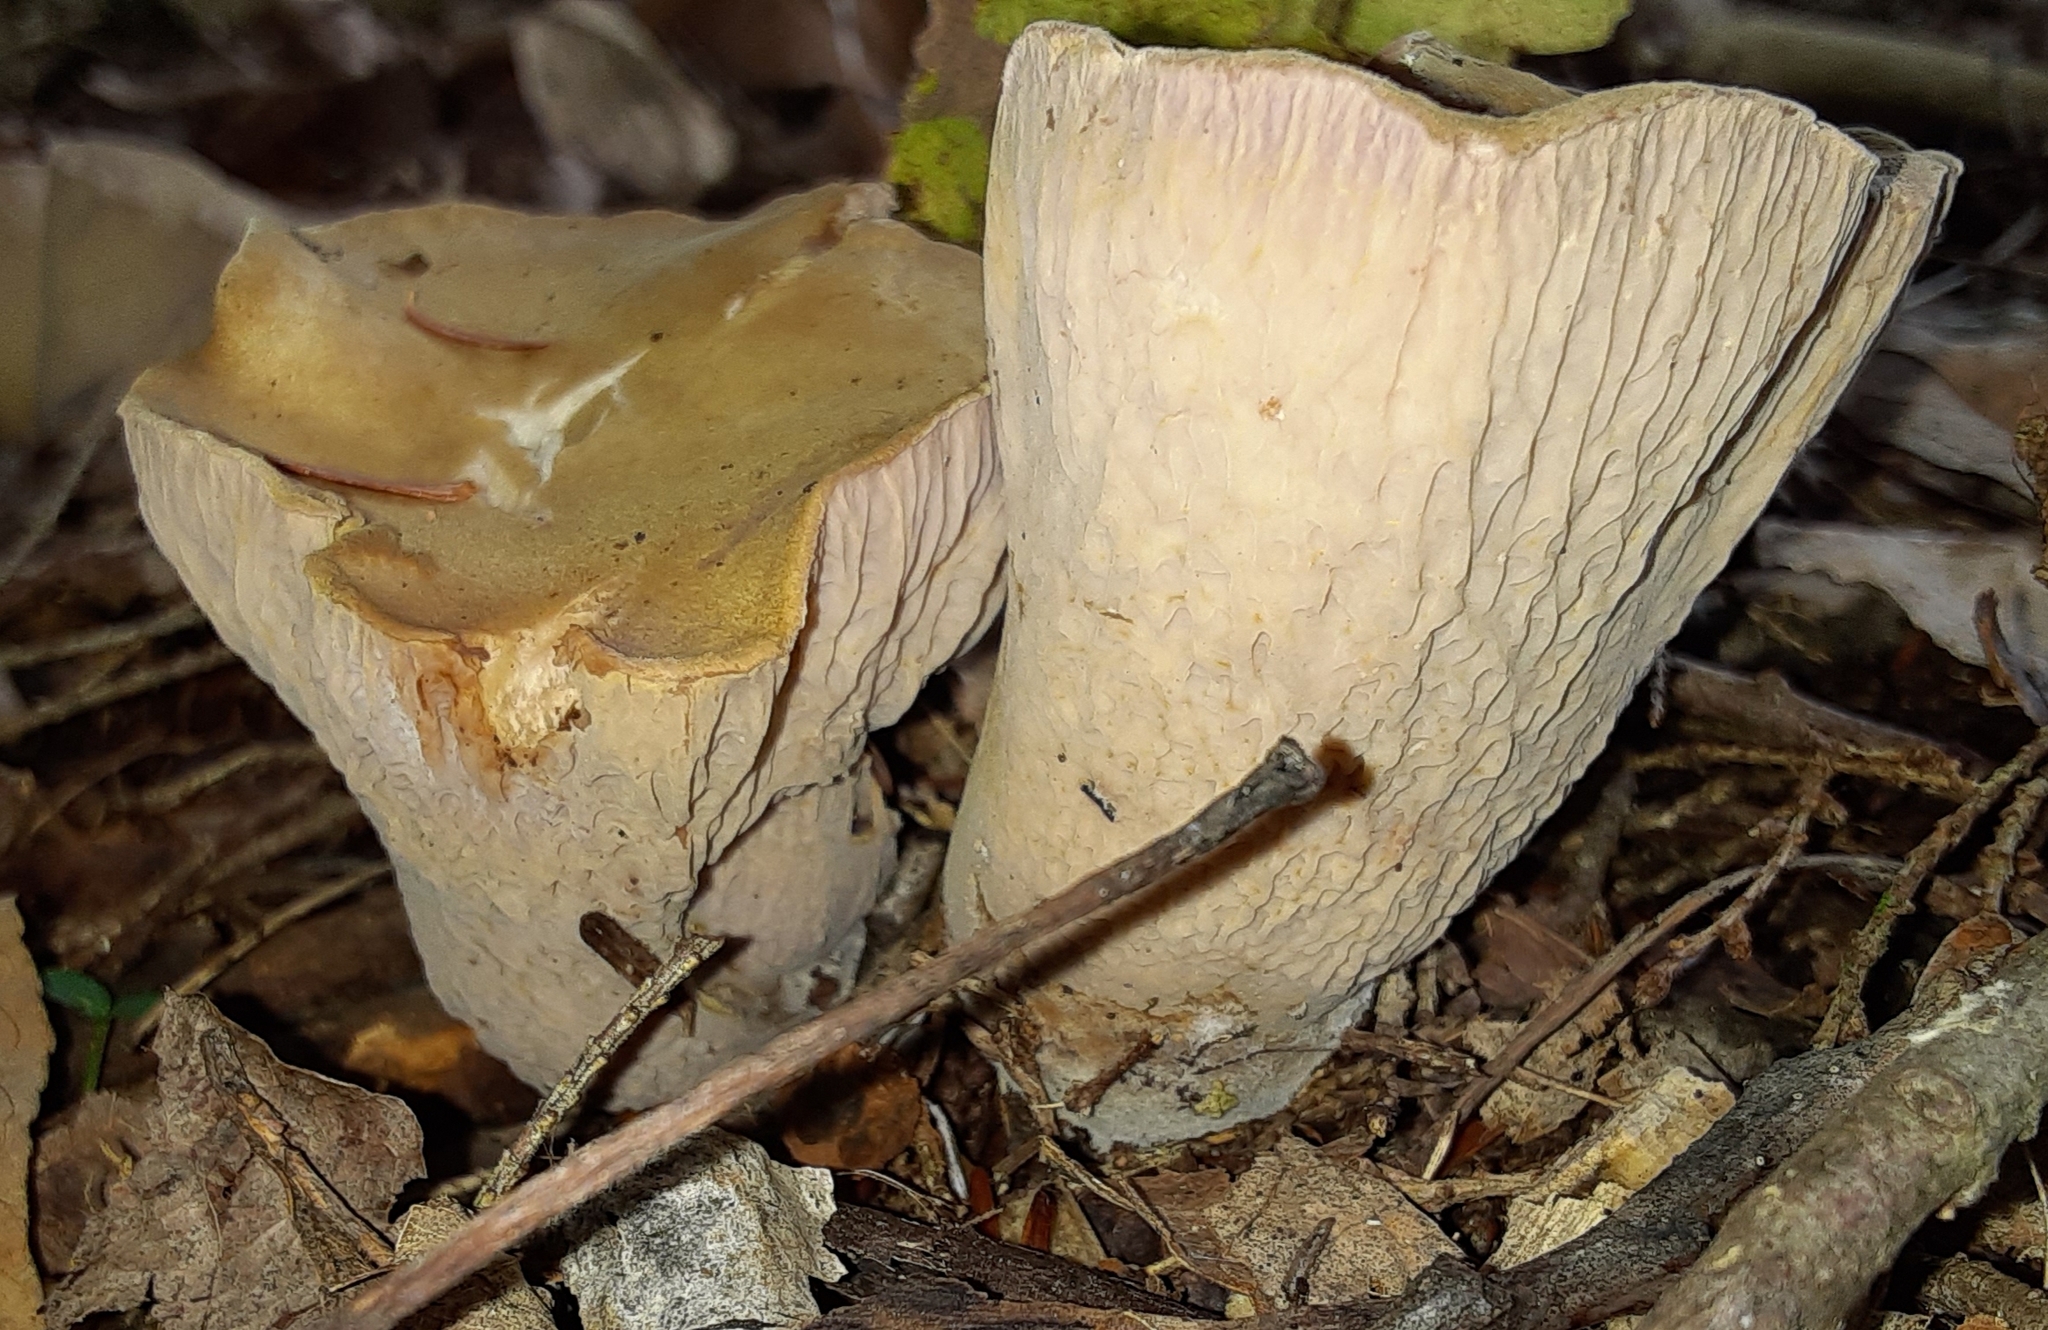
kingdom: Fungi
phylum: Basidiomycota
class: Agaricomycetes
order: Gomphales
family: Gomphaceae
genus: Gomphus
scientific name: Gomphus clavatus
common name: Pig's ear
